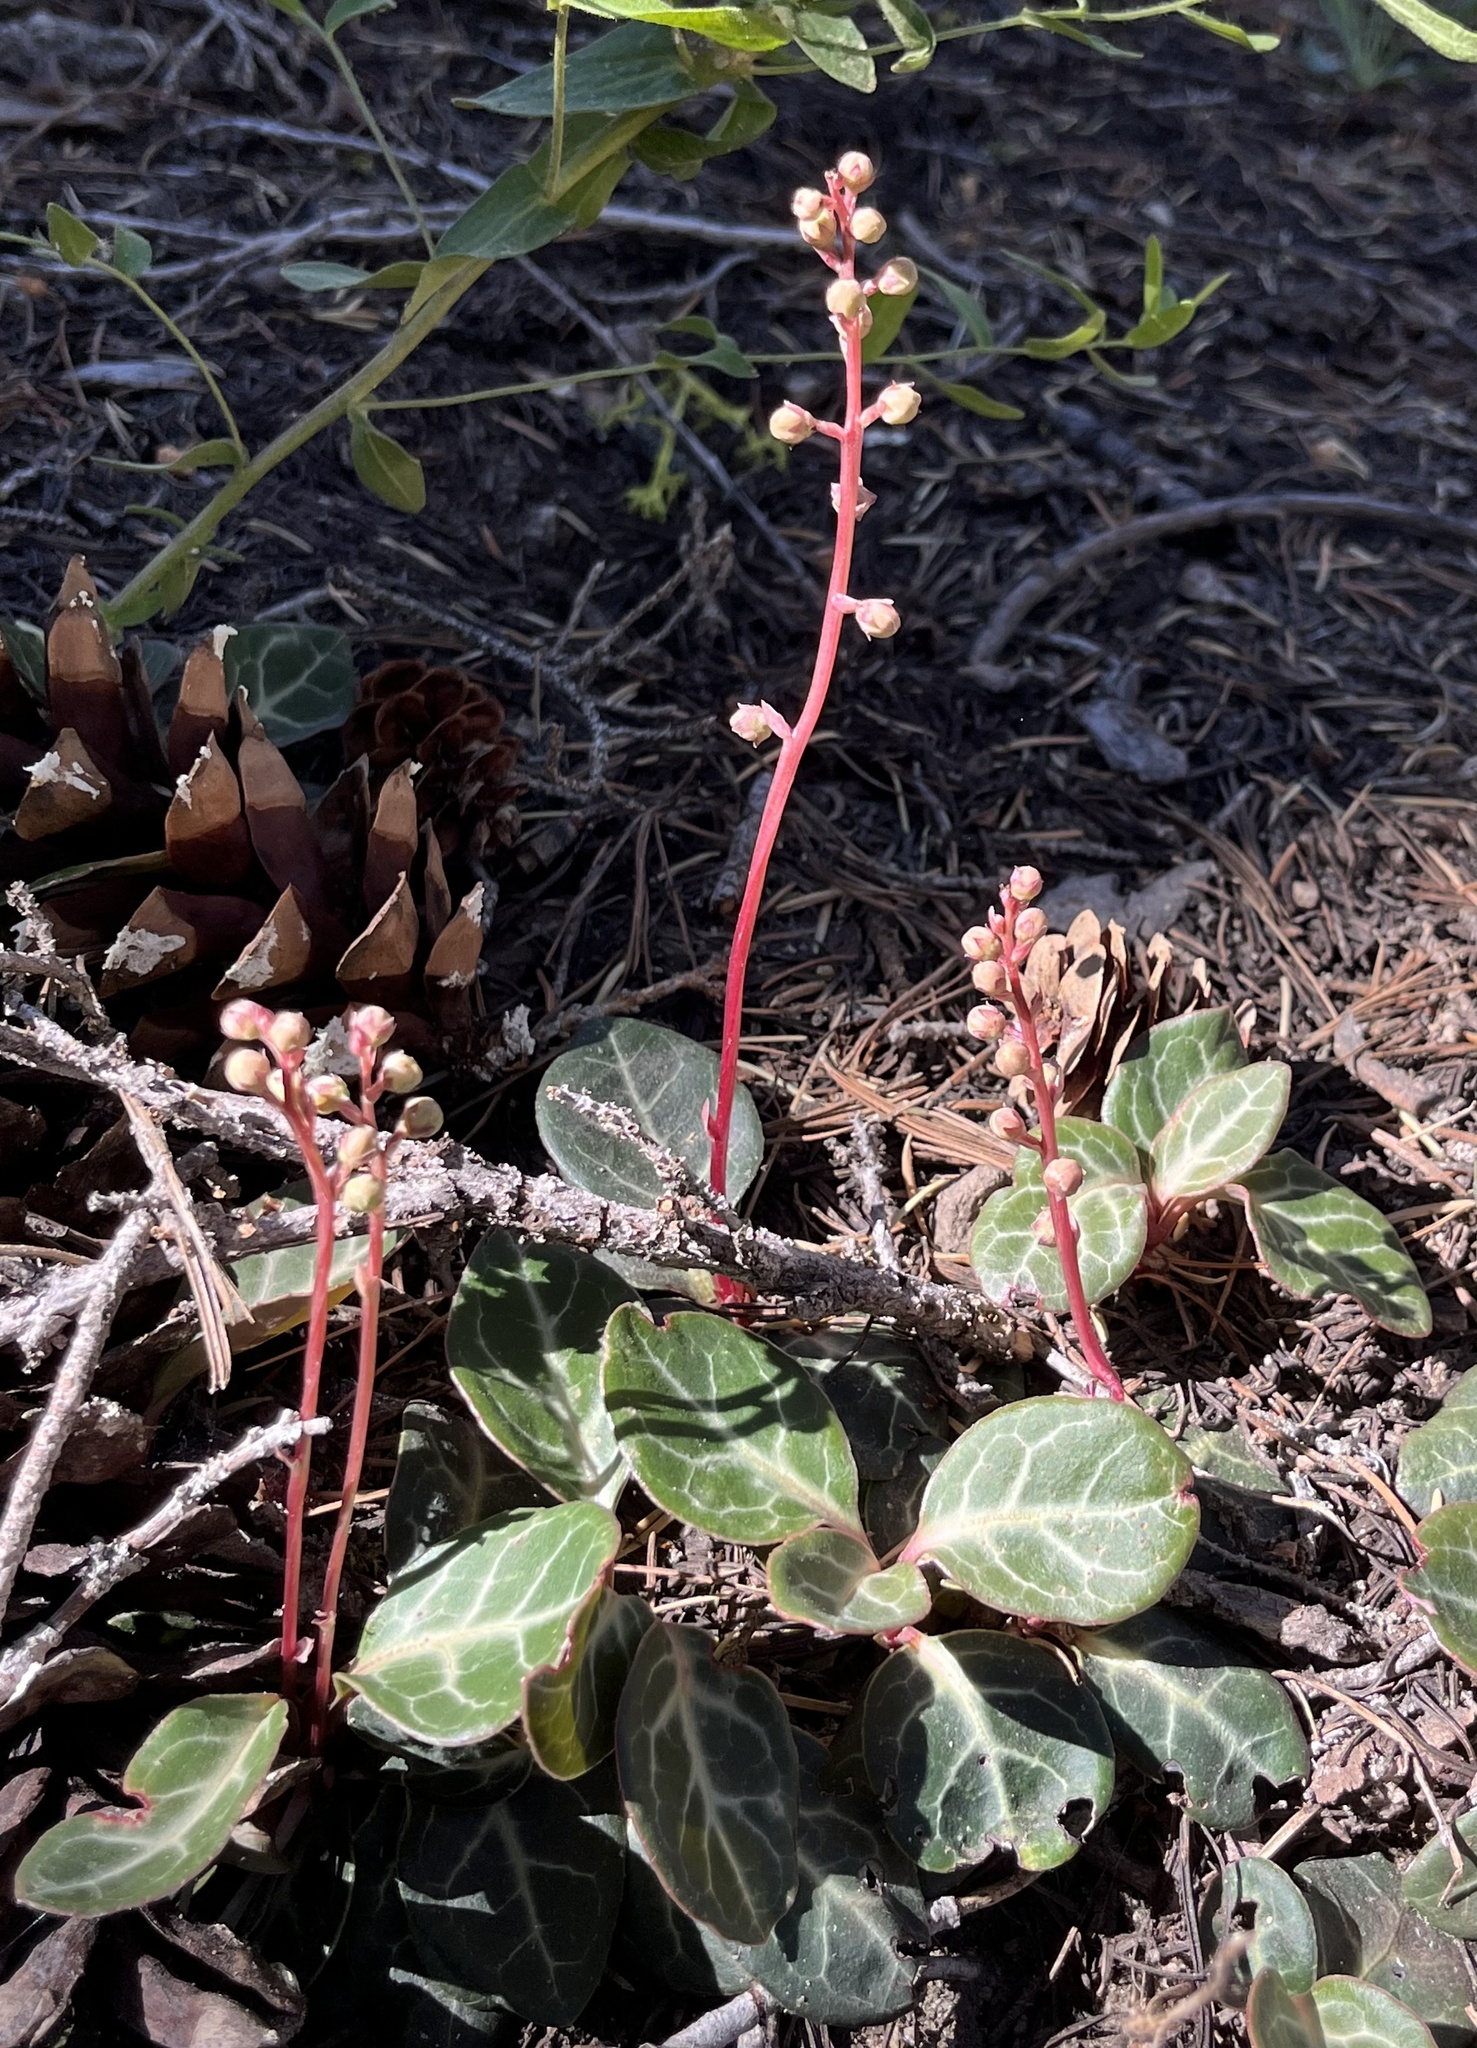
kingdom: Plantae
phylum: Tracheophyta
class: Magnoliopsida
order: Ericales
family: Ericaceae
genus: Pyrola
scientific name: Pyrola picta
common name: White-vein wintergreen
